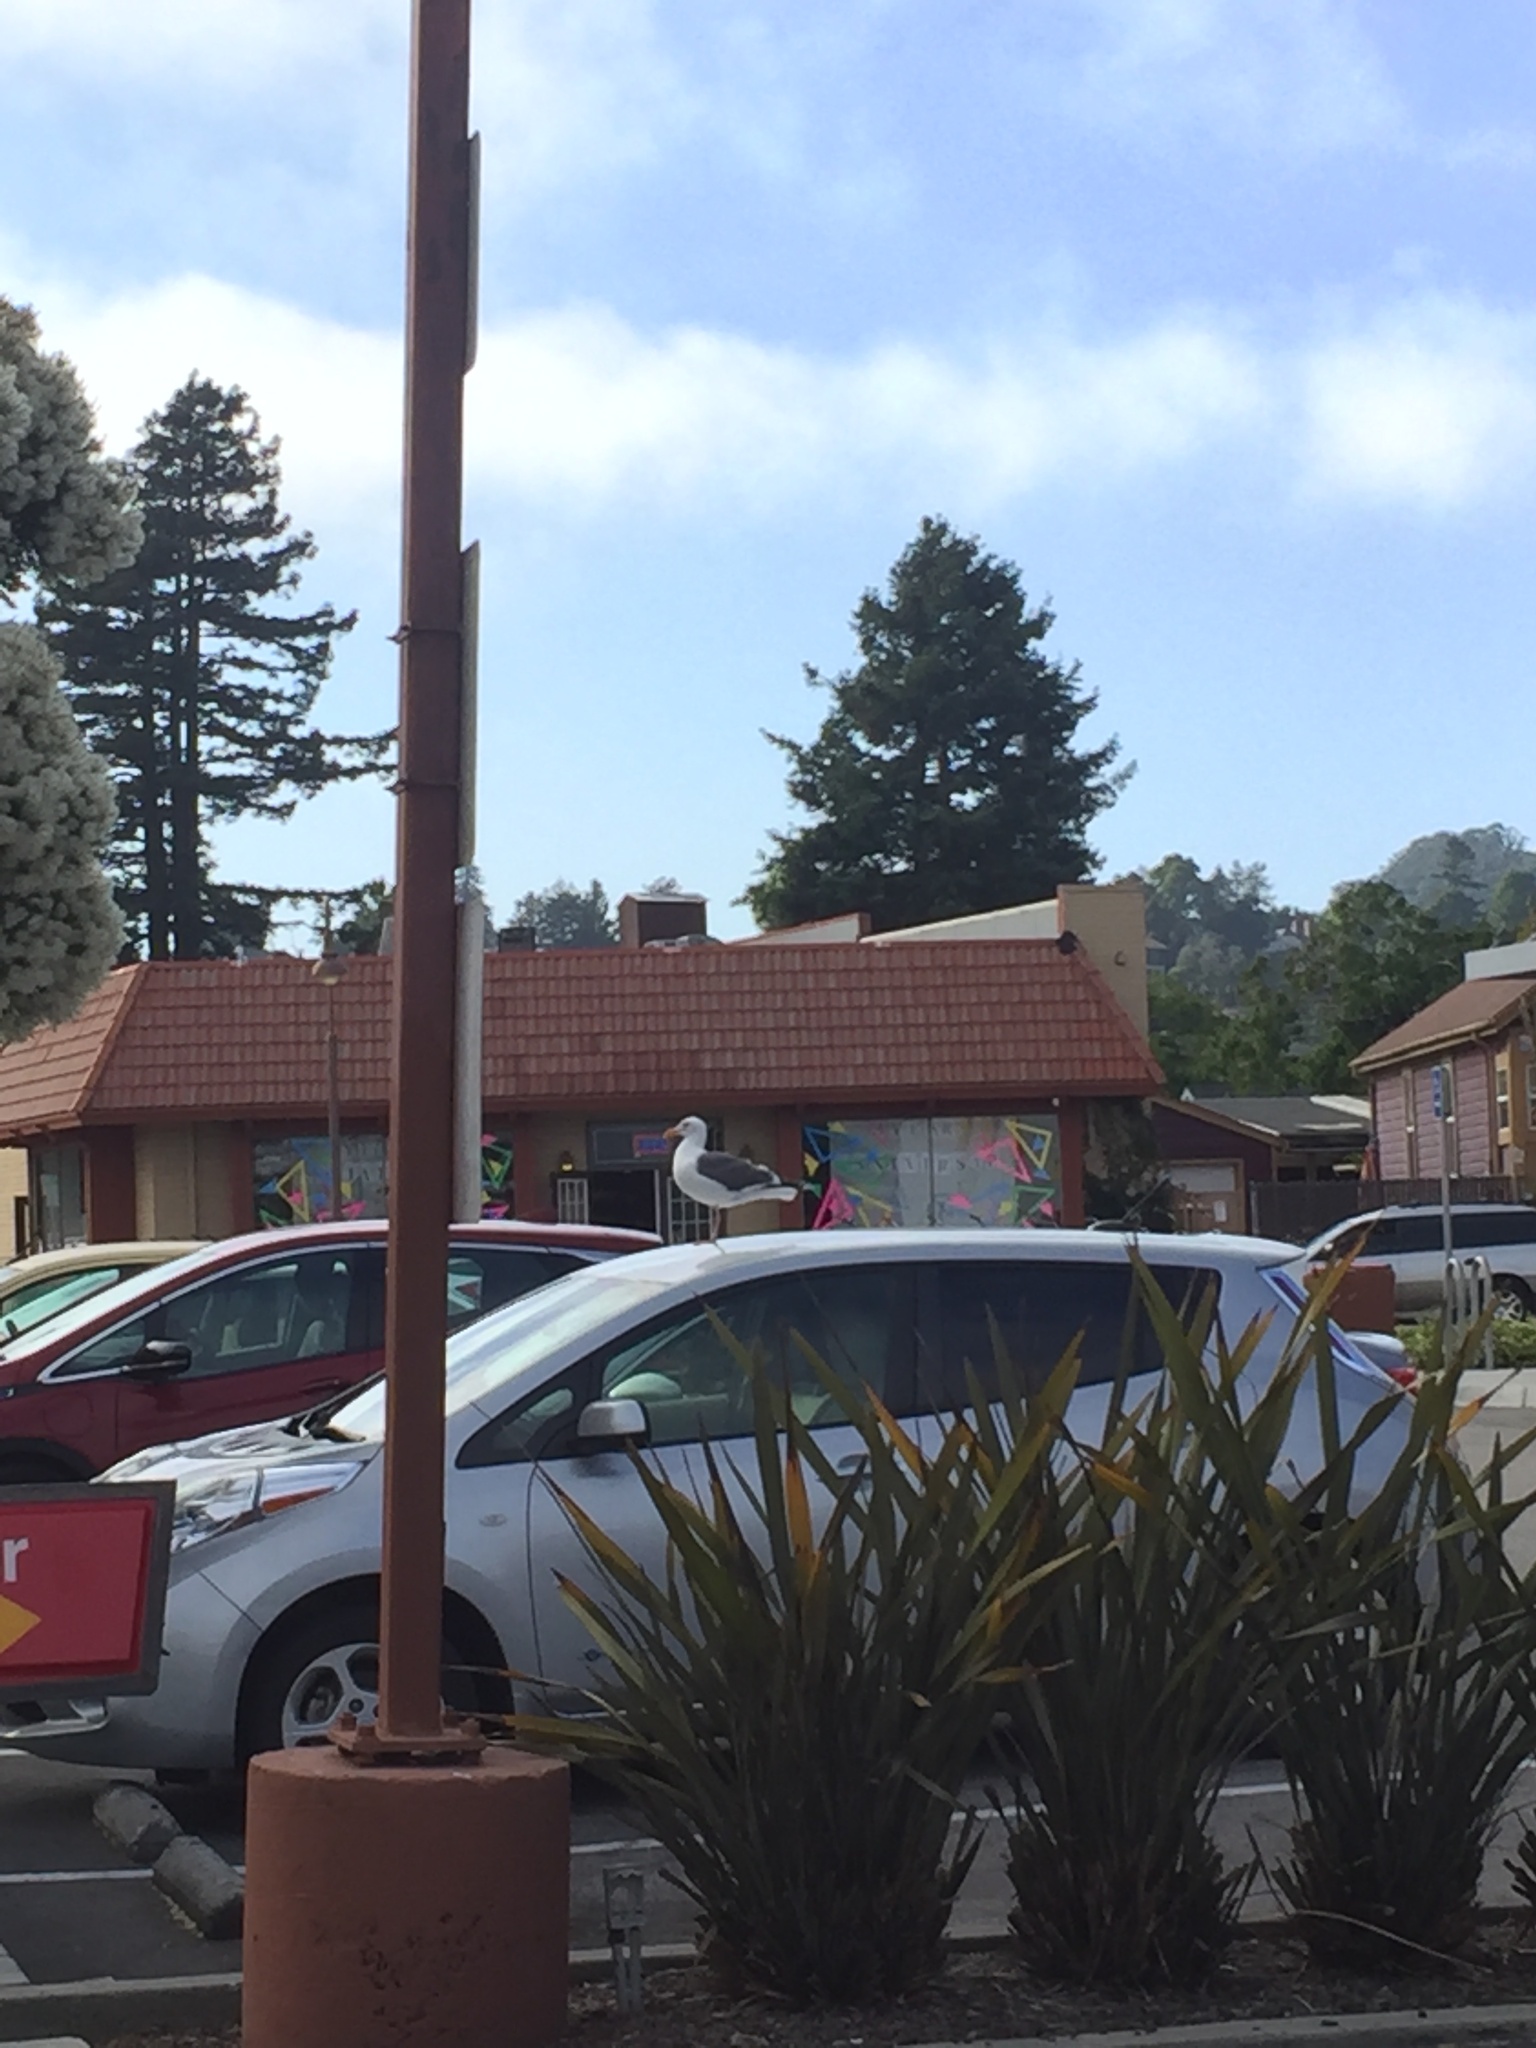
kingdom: Animalia
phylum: Chordata
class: Aves
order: Charadriiformes
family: Laridae
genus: Larus
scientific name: Larus occidentalis
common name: Western gull
